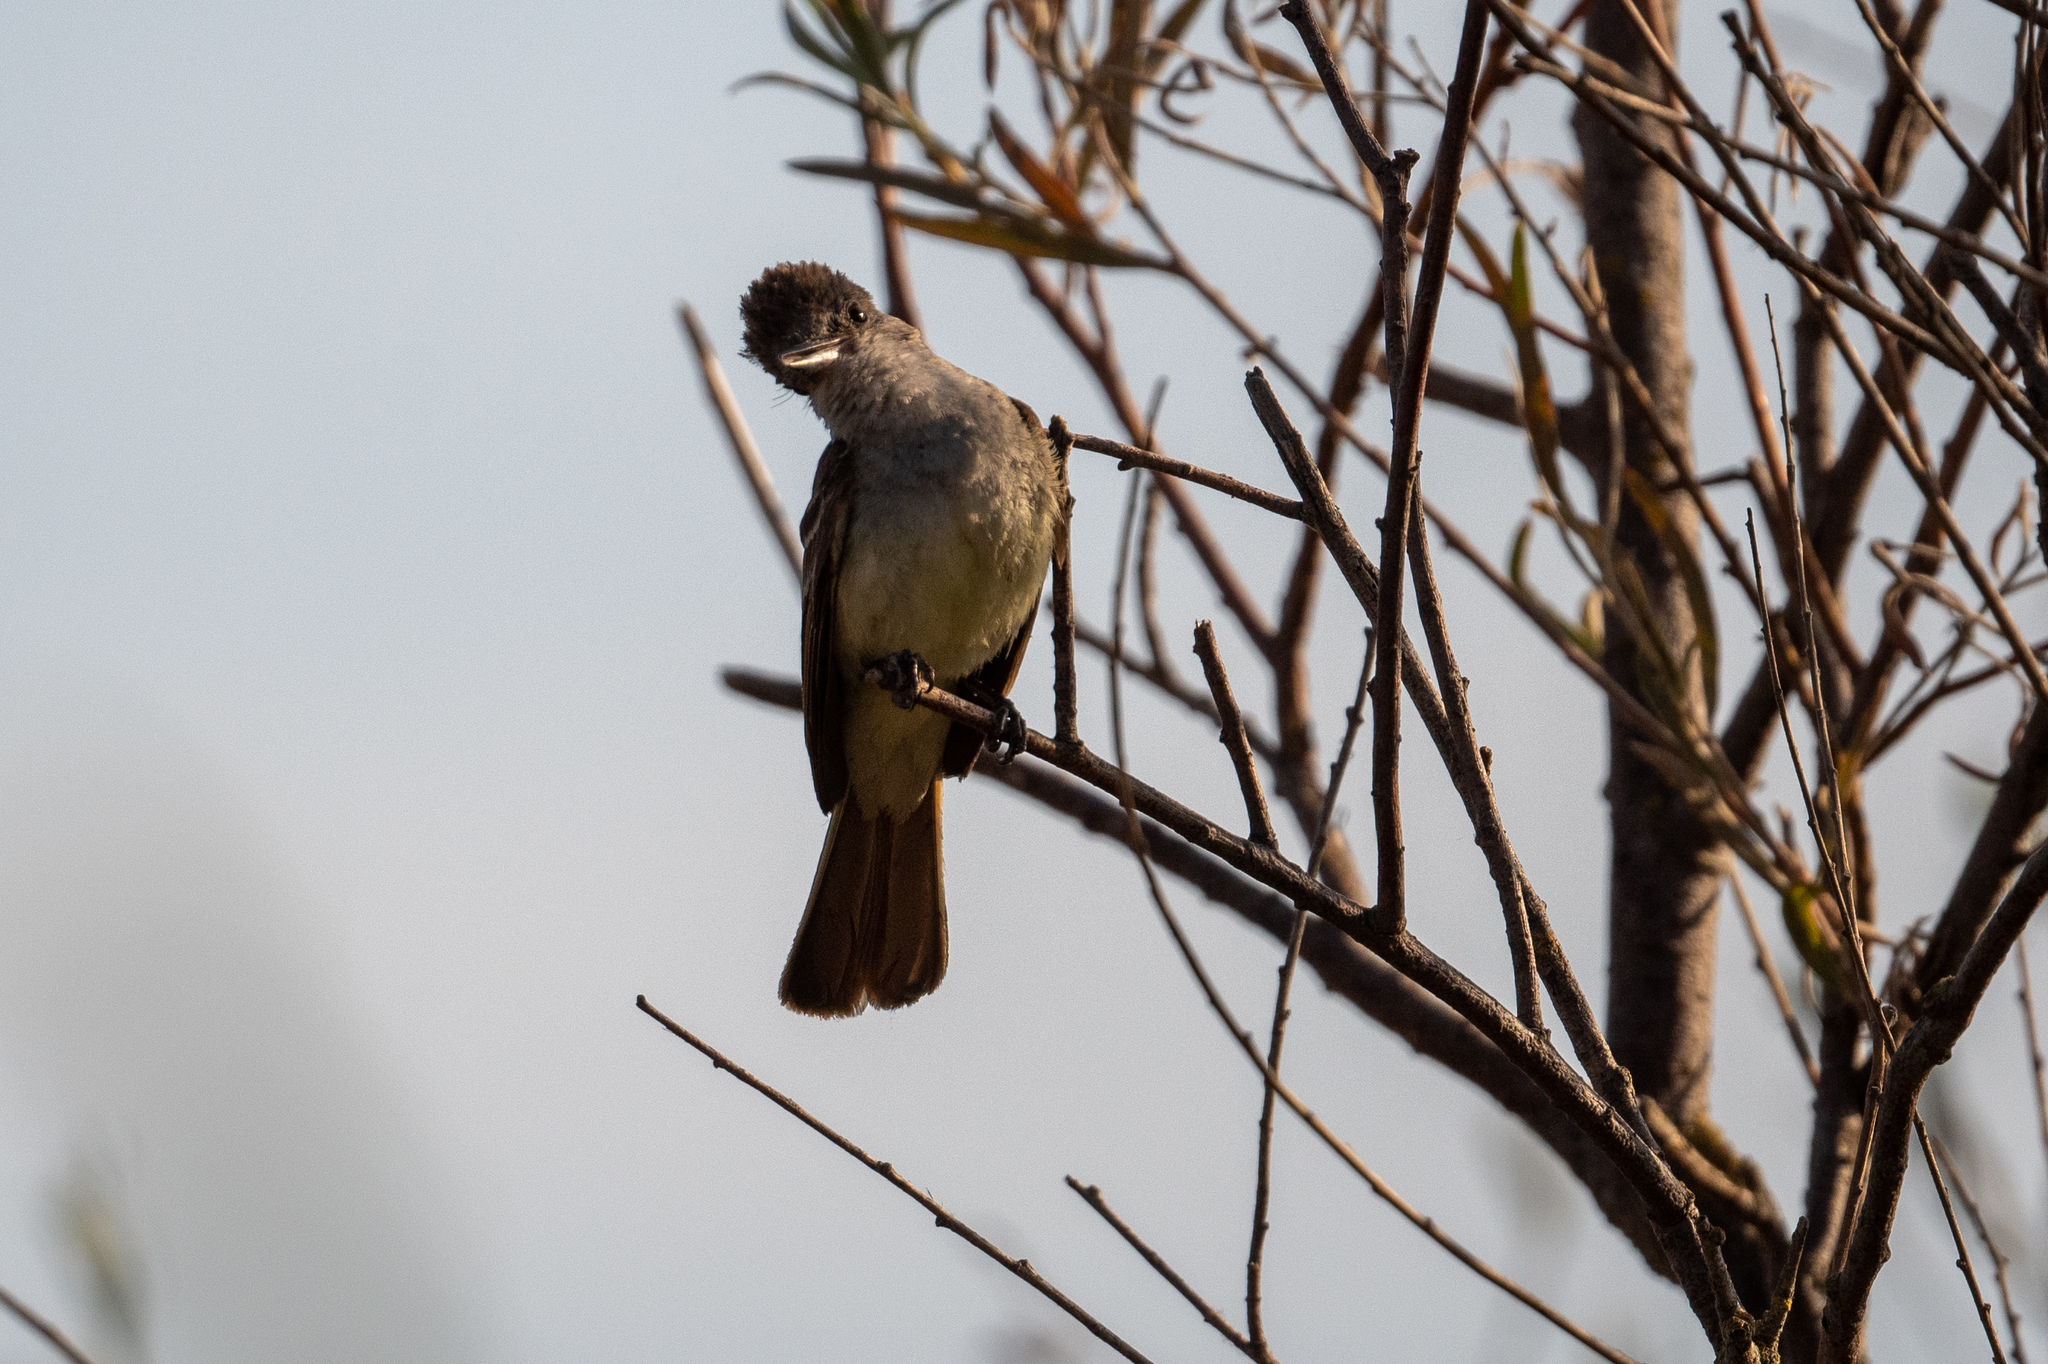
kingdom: Animalia
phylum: Chordata
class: Aves
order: Passeriformes
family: Tyrannidae
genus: Myiarchus
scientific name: Myiarchus cinerascens
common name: Ash-throated flycatcher
